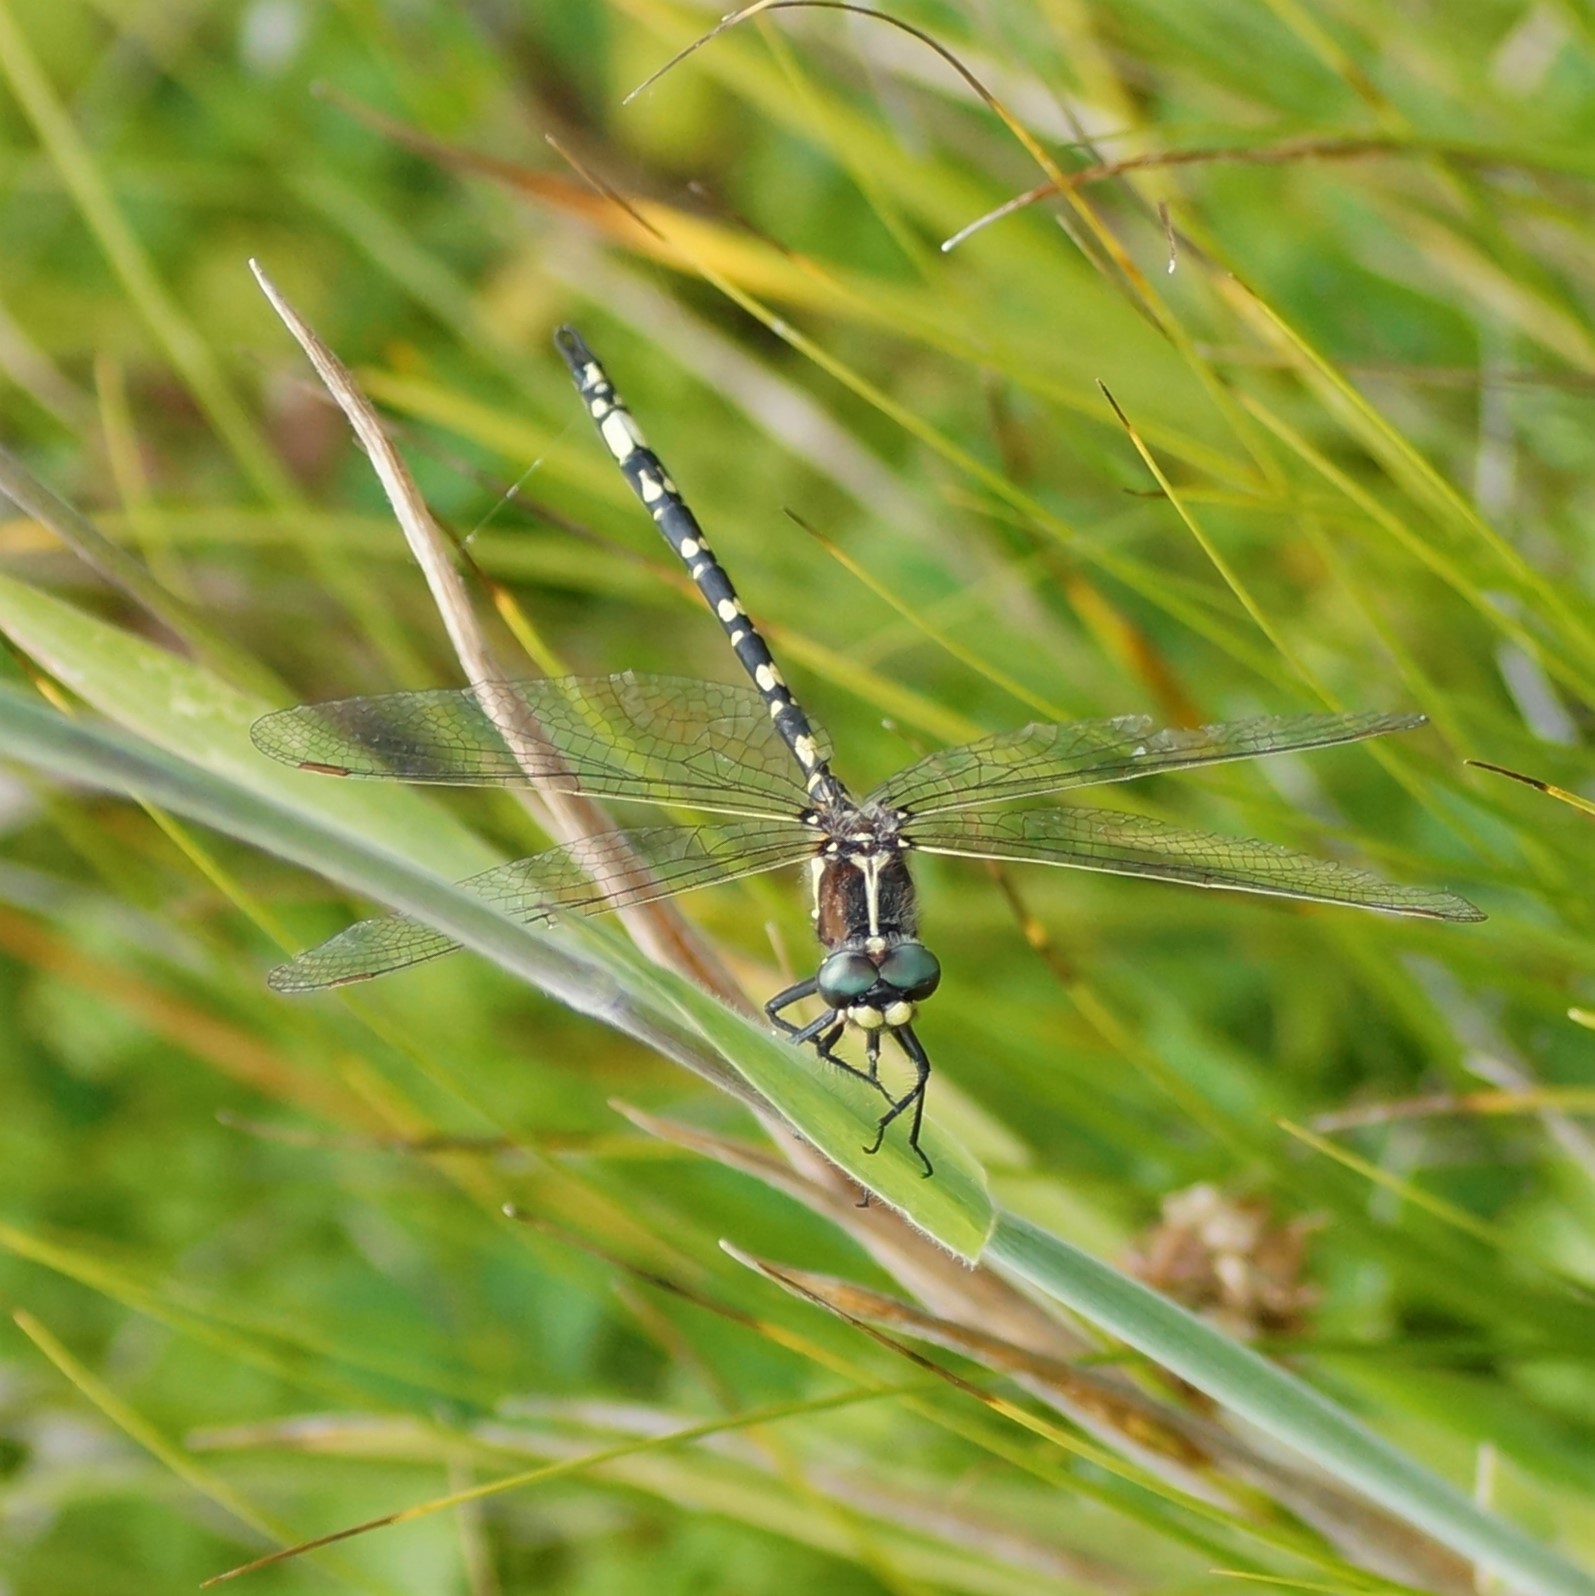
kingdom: Animalia
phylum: Arthropoda
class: Insecta
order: Odonata
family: Synthemistidae
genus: Synthemis
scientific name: Synthemis eustalacta
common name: Swamp tigertail
